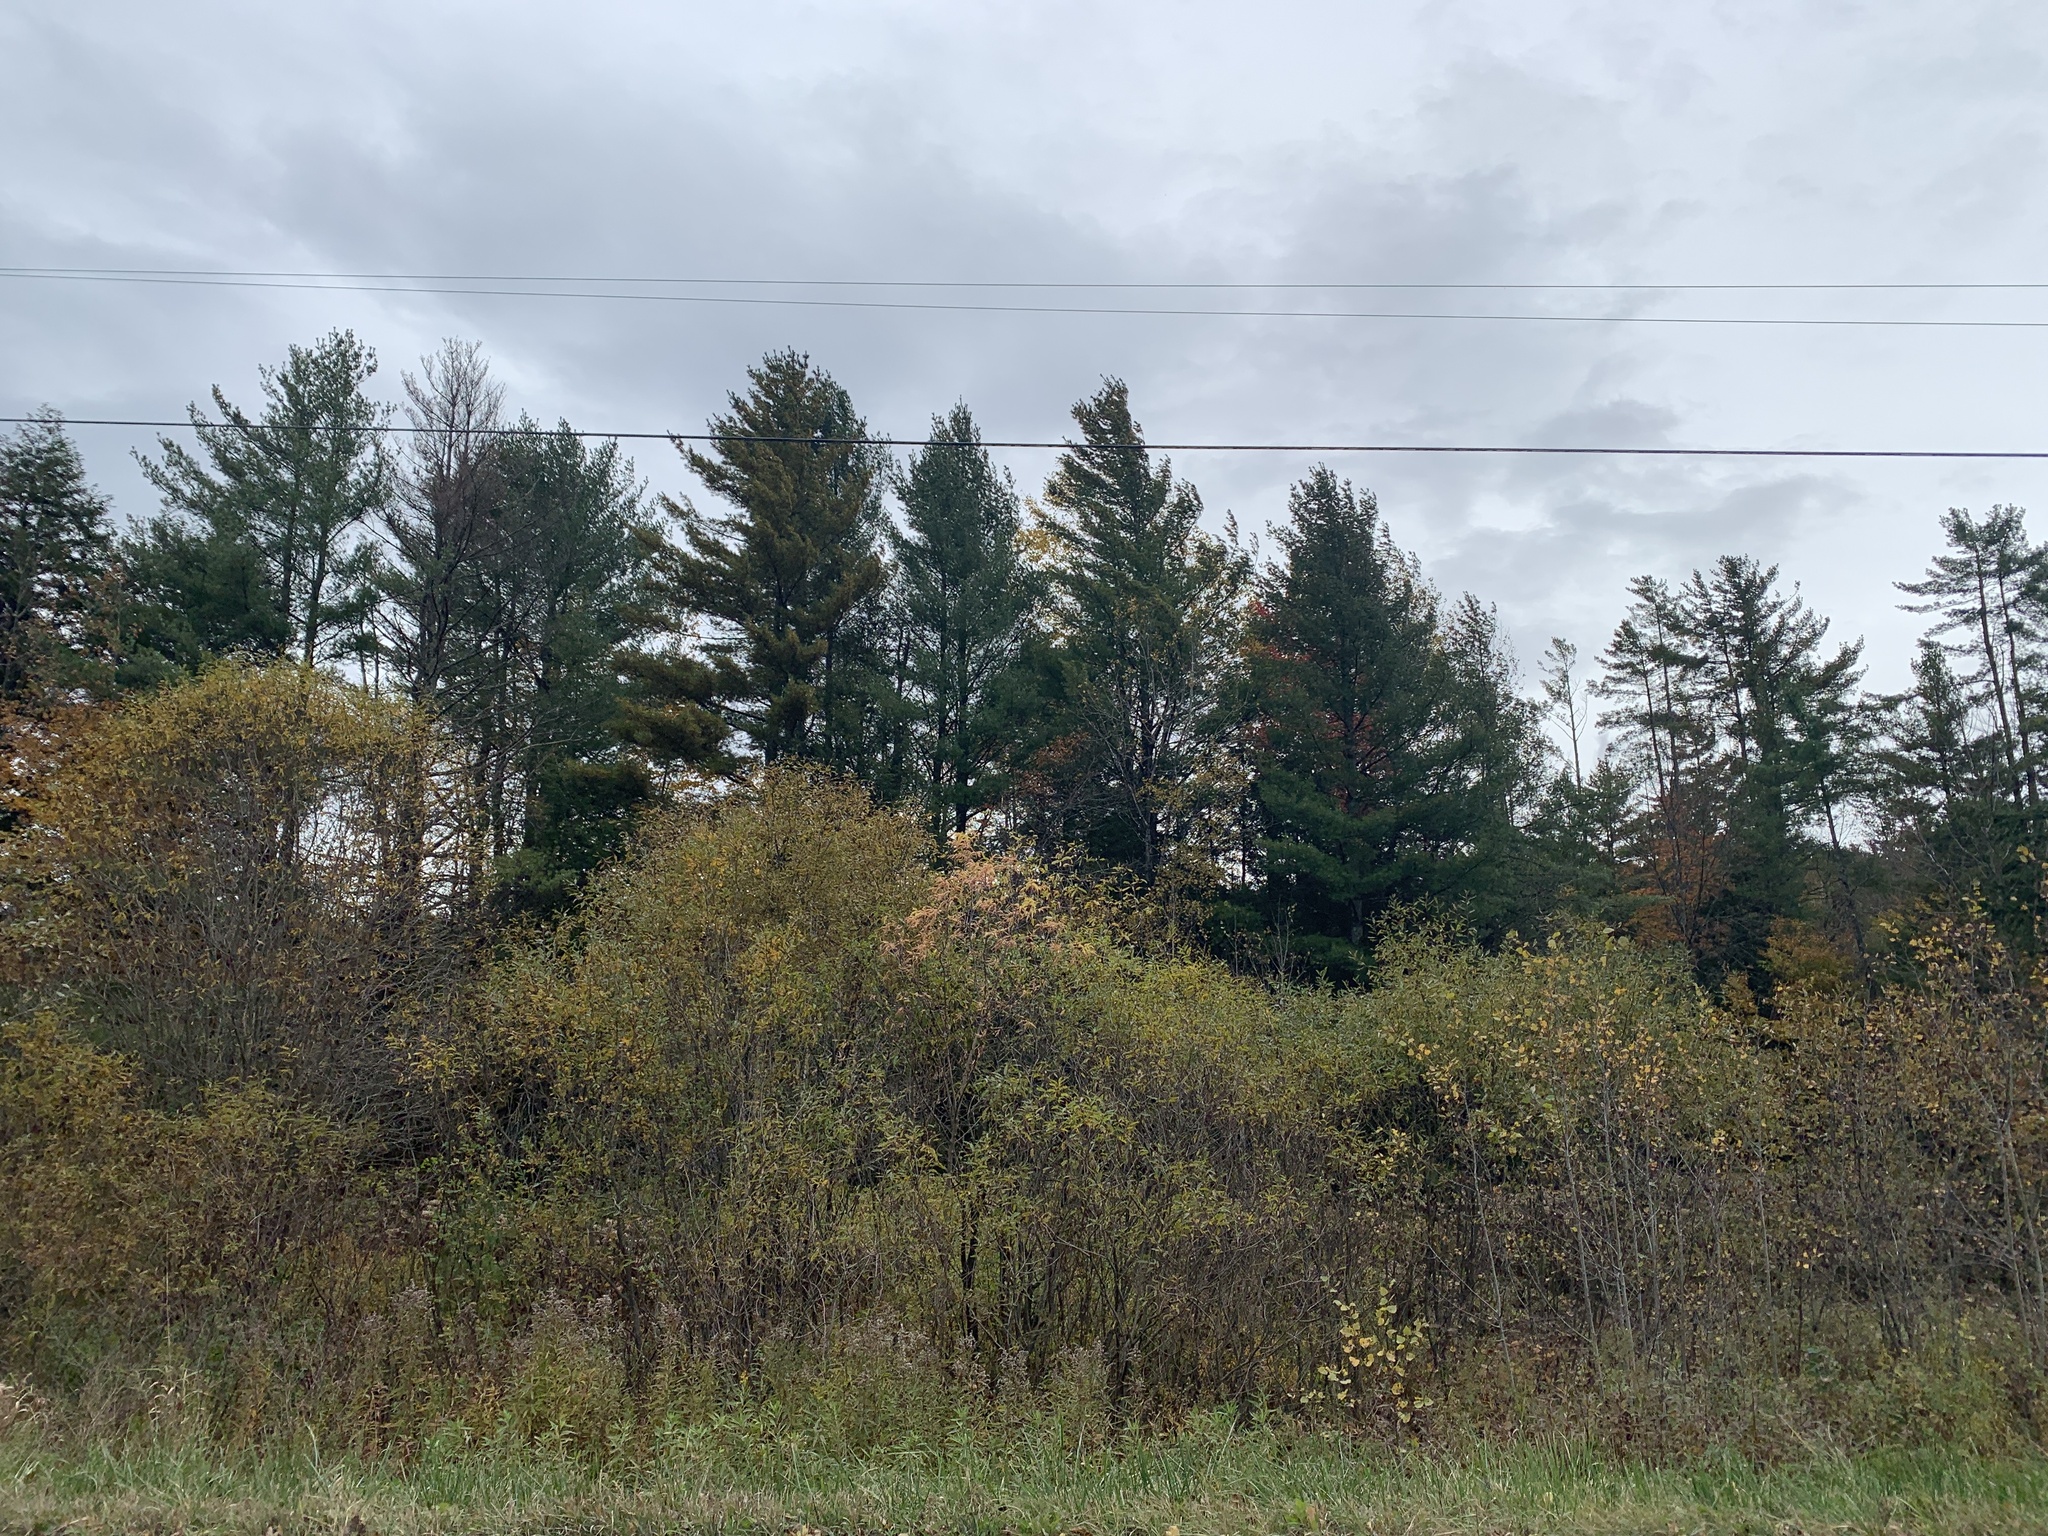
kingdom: Plantae
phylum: Tracheophyta
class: Pinopsida
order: Pinales
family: Pinaceae
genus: Pinus
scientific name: Pinus strobus
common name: Weymouth pine
